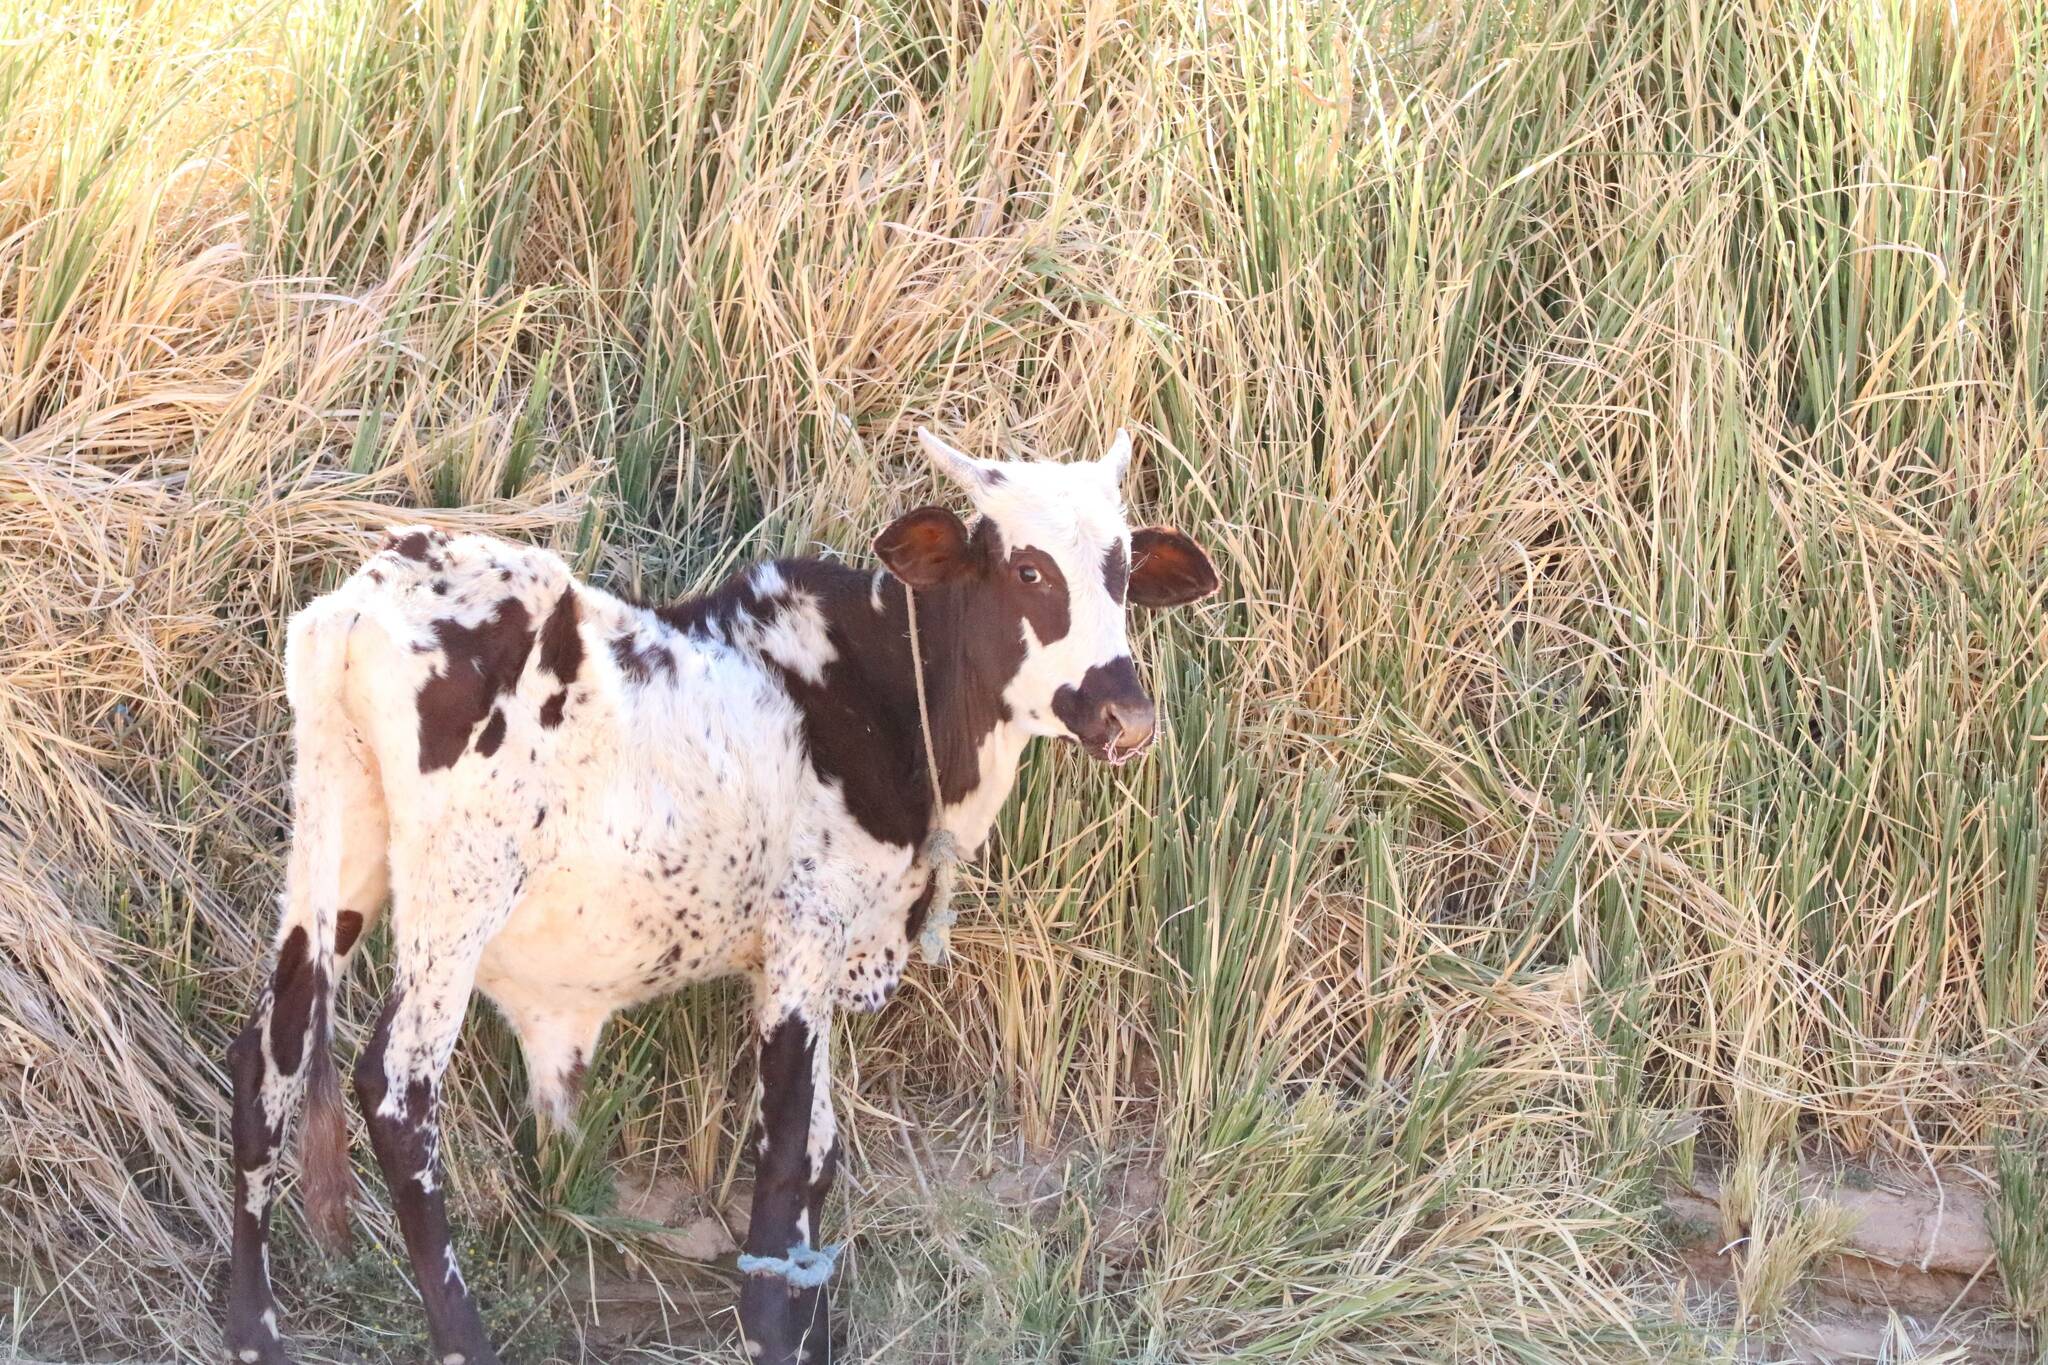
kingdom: Animalia
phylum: Chordata
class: Mammalia
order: Artiodactyla
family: Bovidae
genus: Bos
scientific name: Bos
